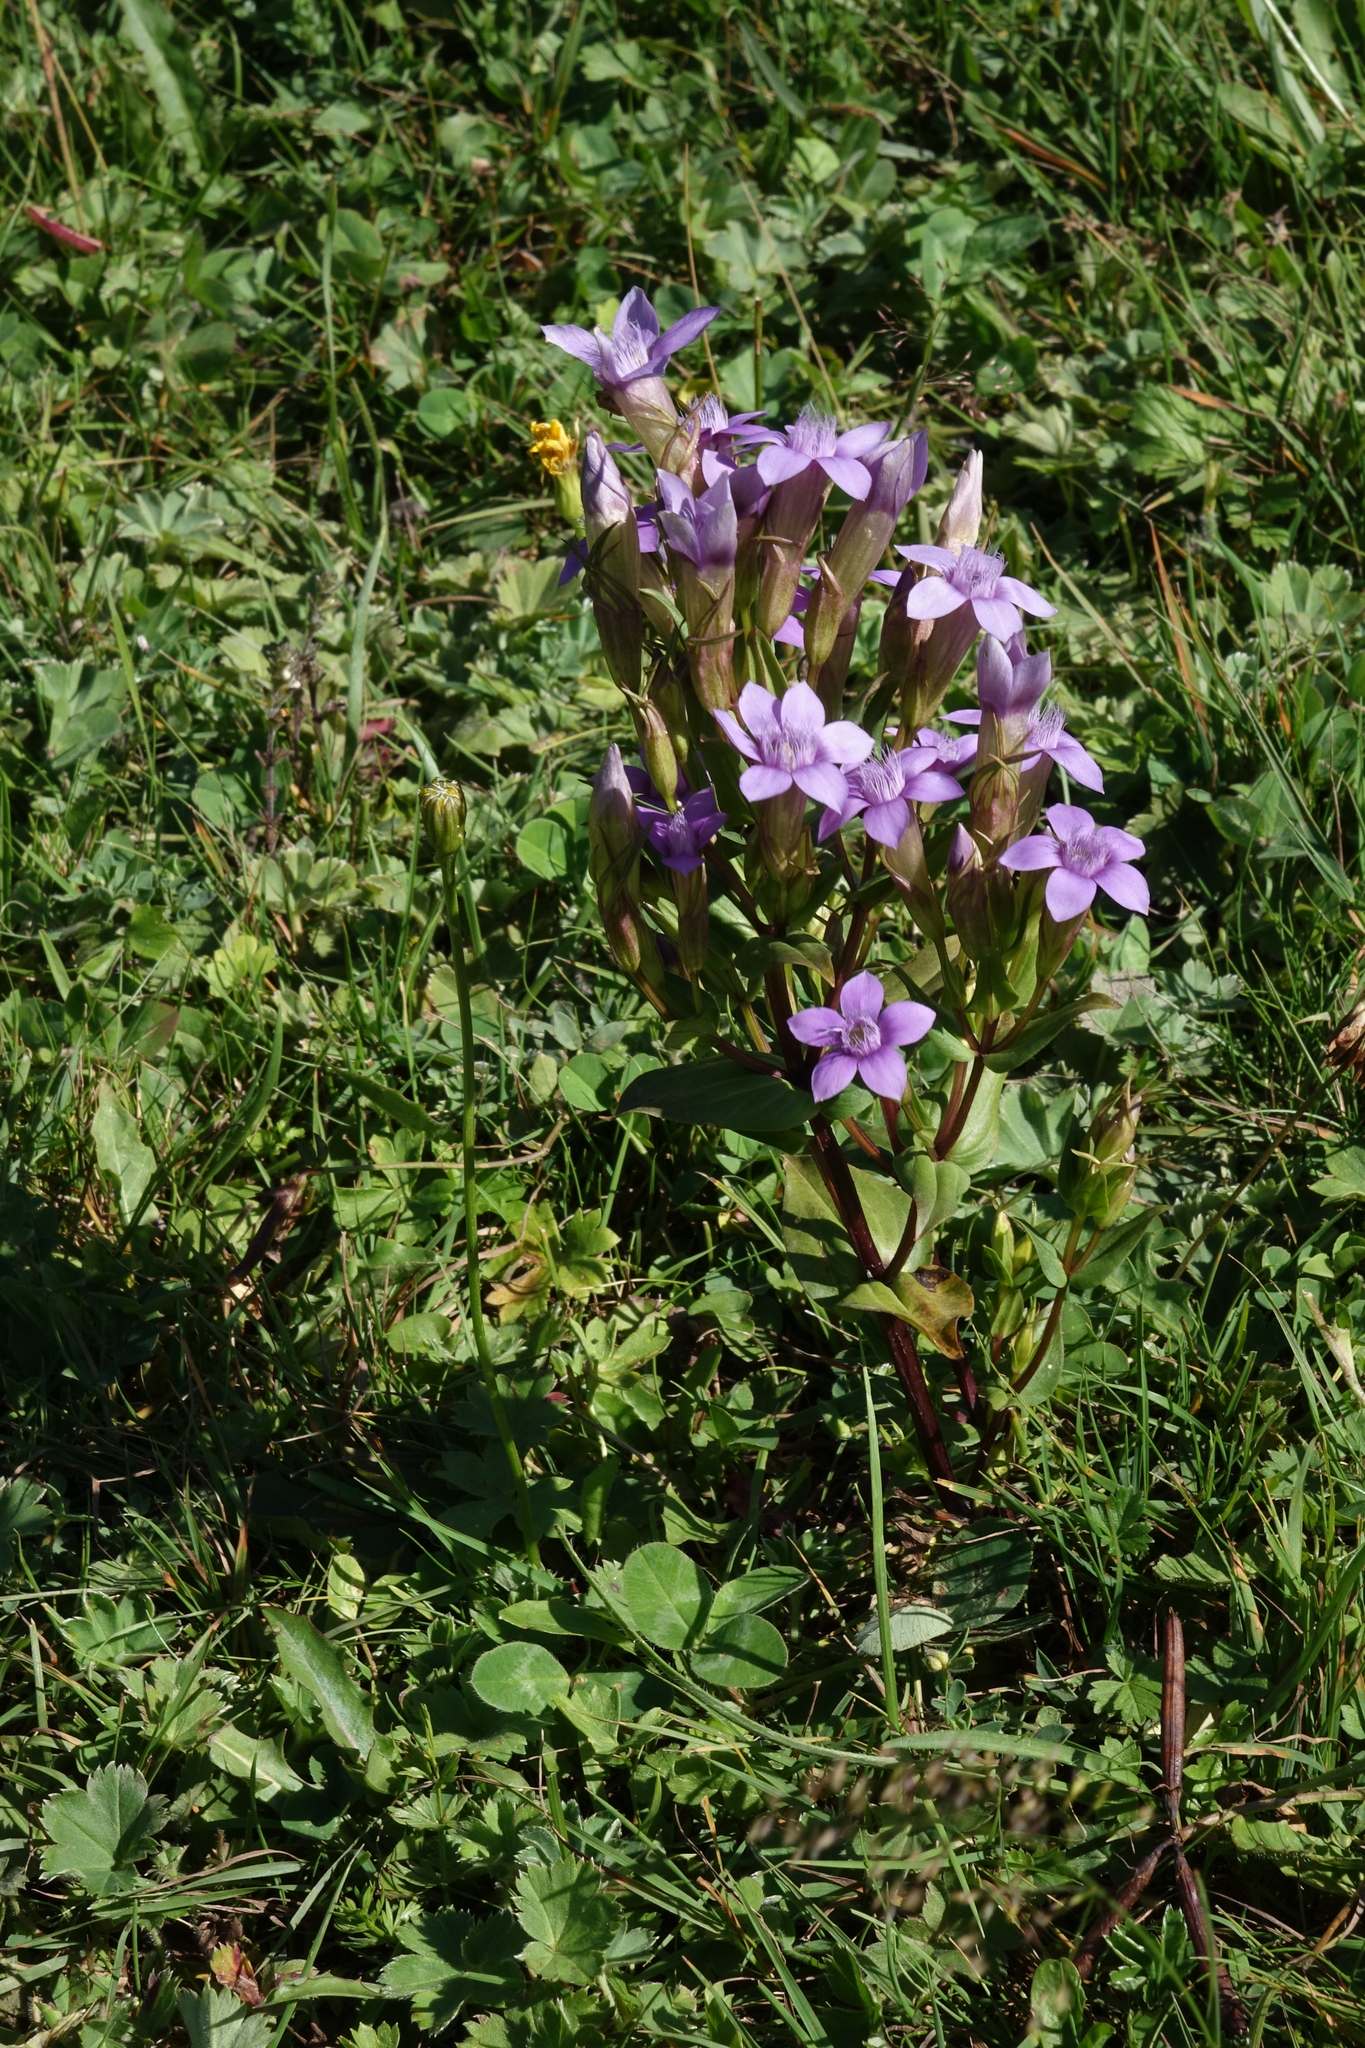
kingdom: Plantae
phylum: Tracheophyta
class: Magnoliopsida
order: Gentianales
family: Gentianaceae
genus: Gentianella
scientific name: Gentianella caucasea
